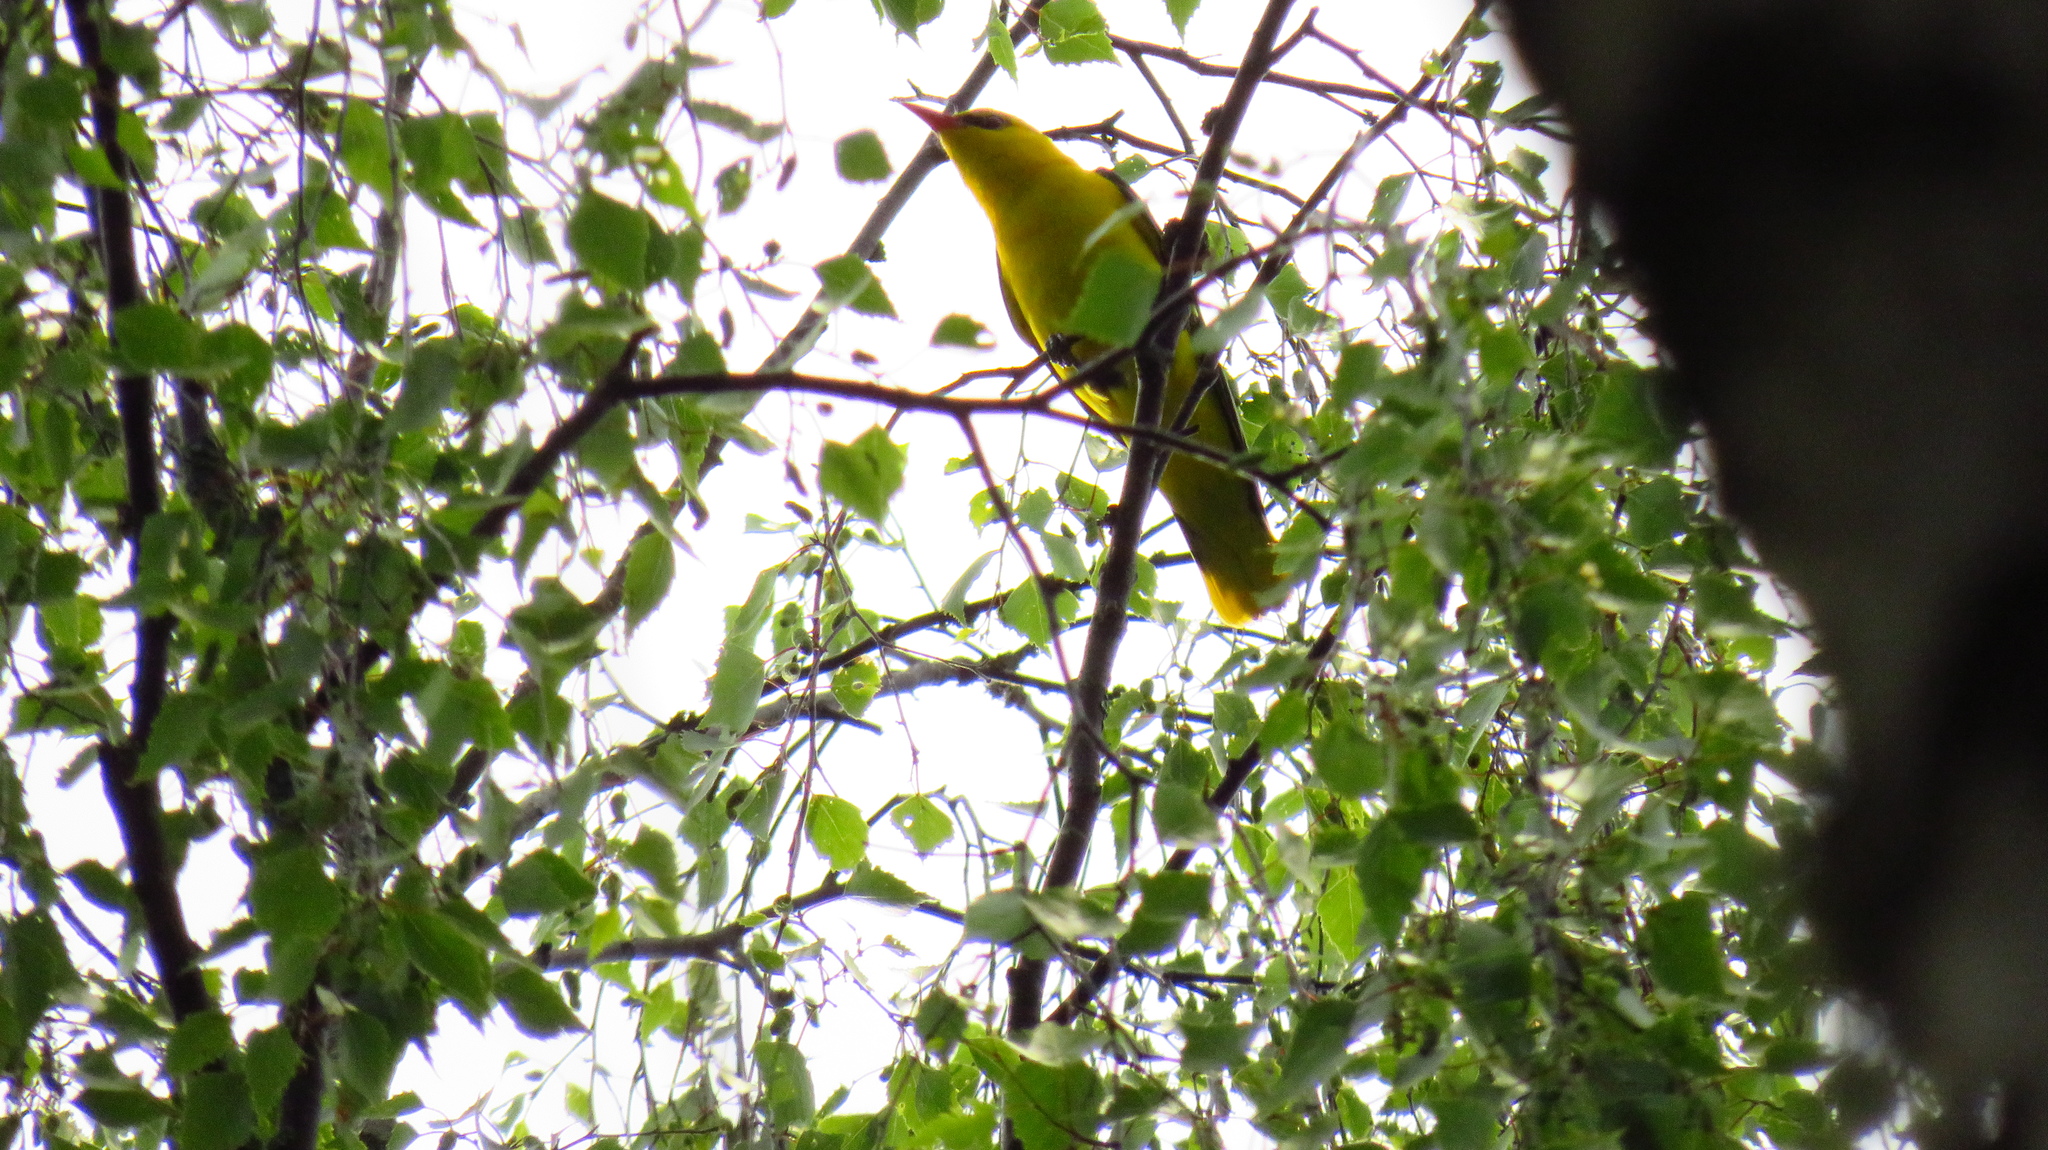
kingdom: Animalia
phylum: Chordata
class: Aves
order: Passeriformes
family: Oriolidae
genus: Oriolus
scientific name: Oriolus oriolus
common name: Eurasian golden oriole
